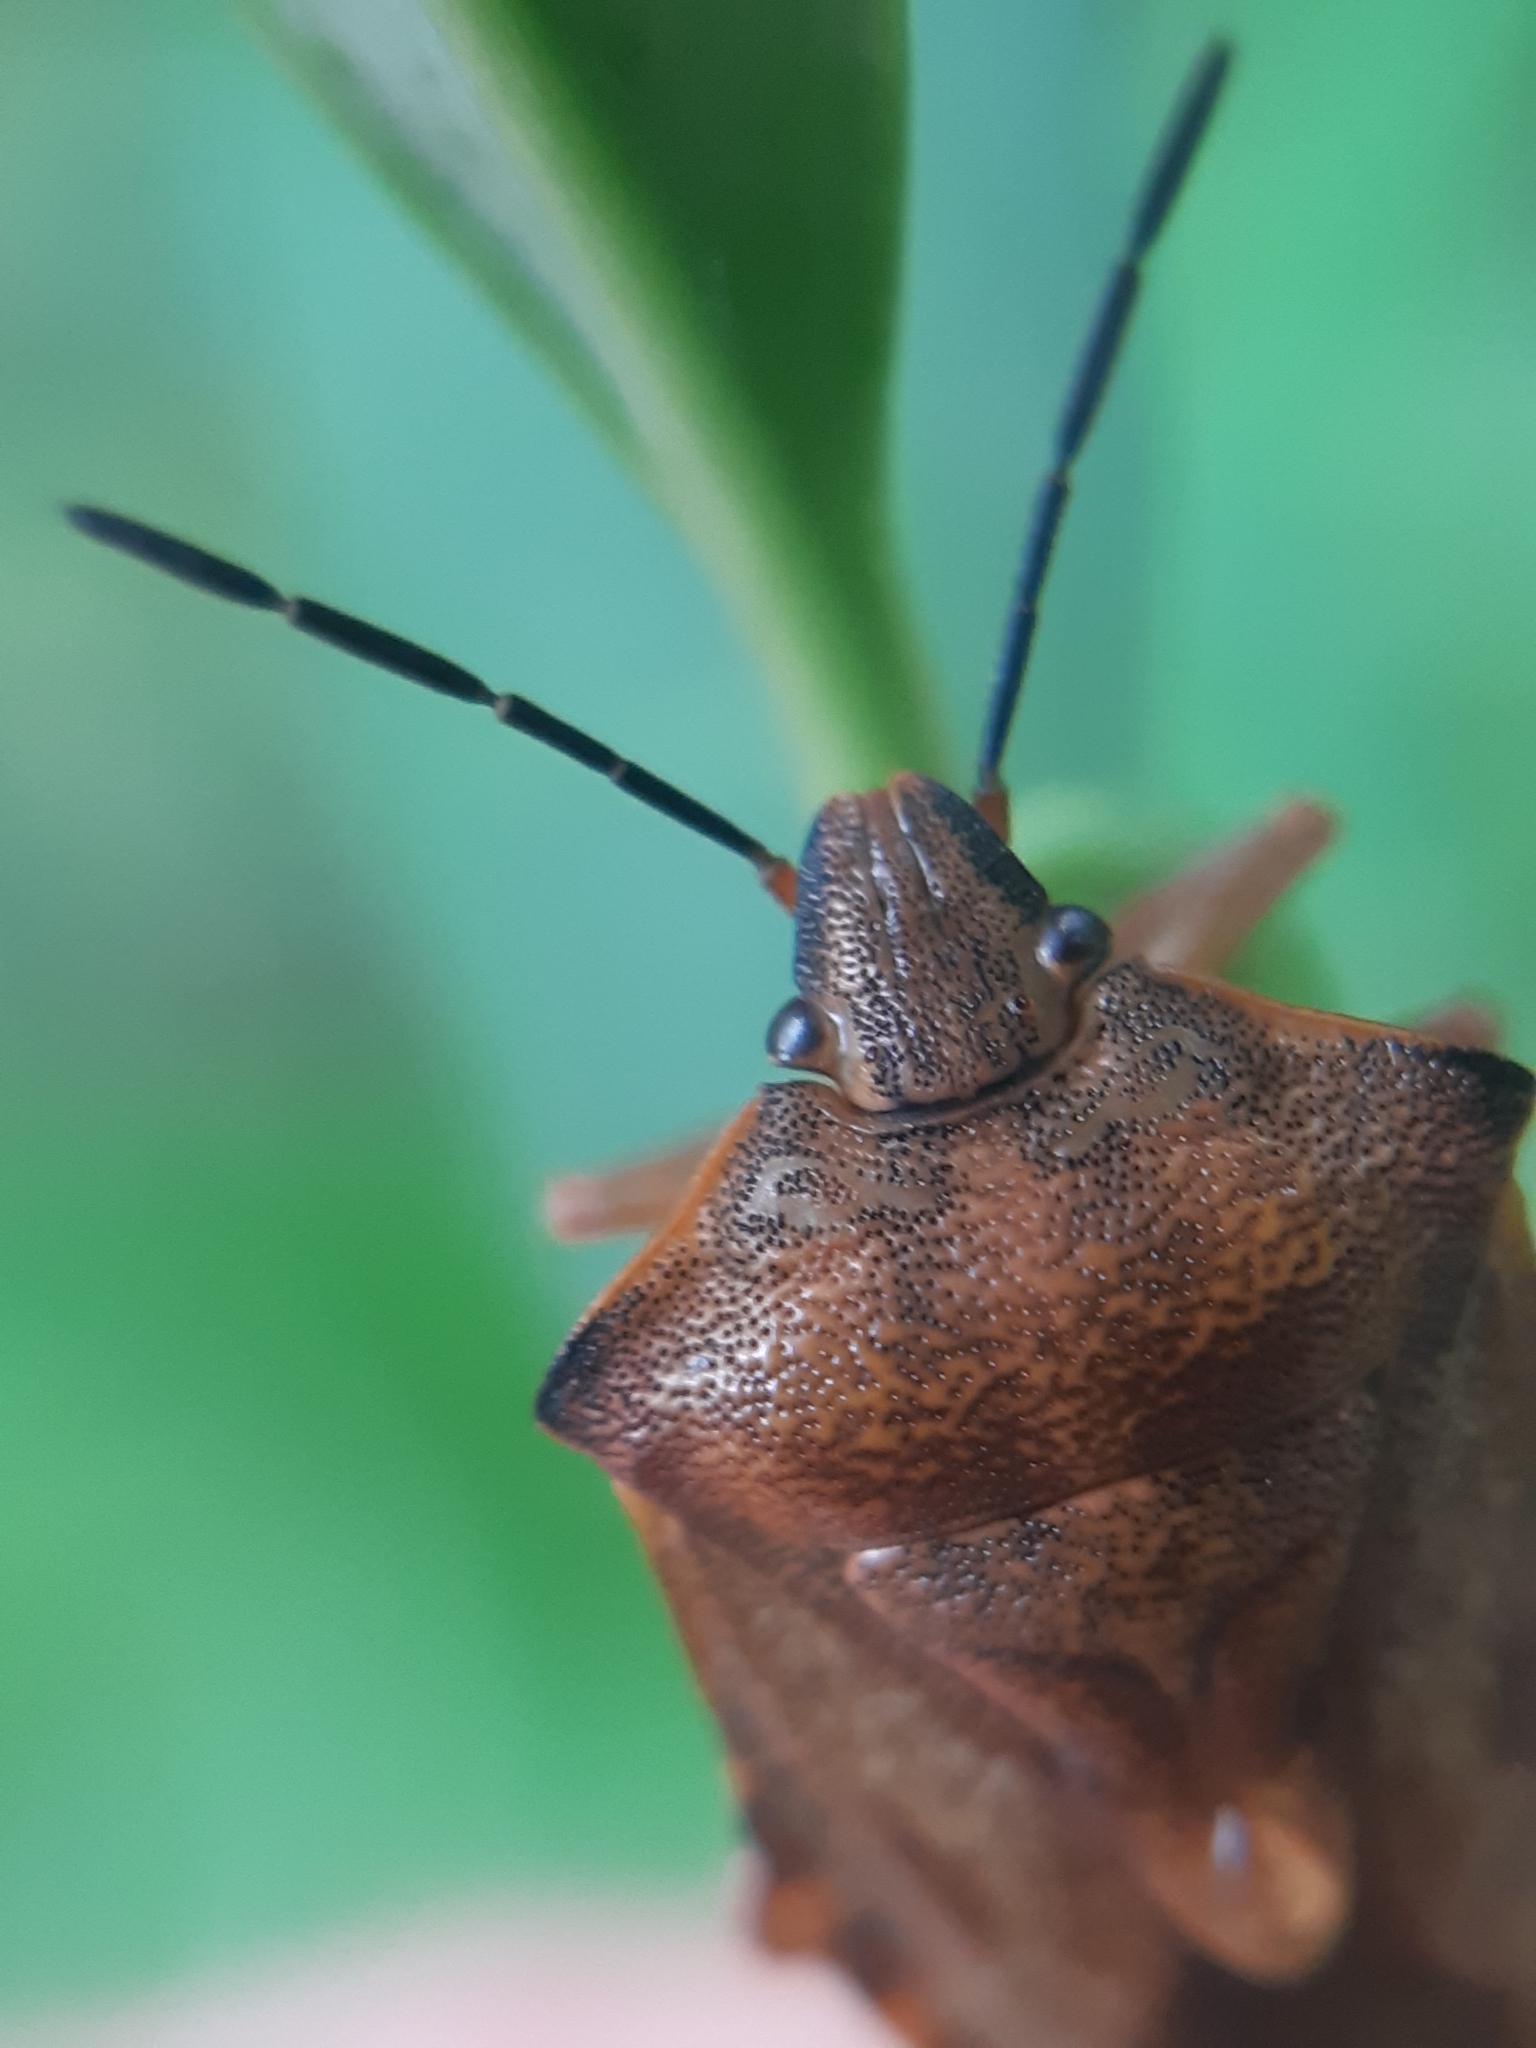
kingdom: Animalia
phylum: Arthropoda
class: Insecta
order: Hemiptera
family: Pentatomidae
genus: Carpocoris
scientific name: Carpocoris purpureipennis
